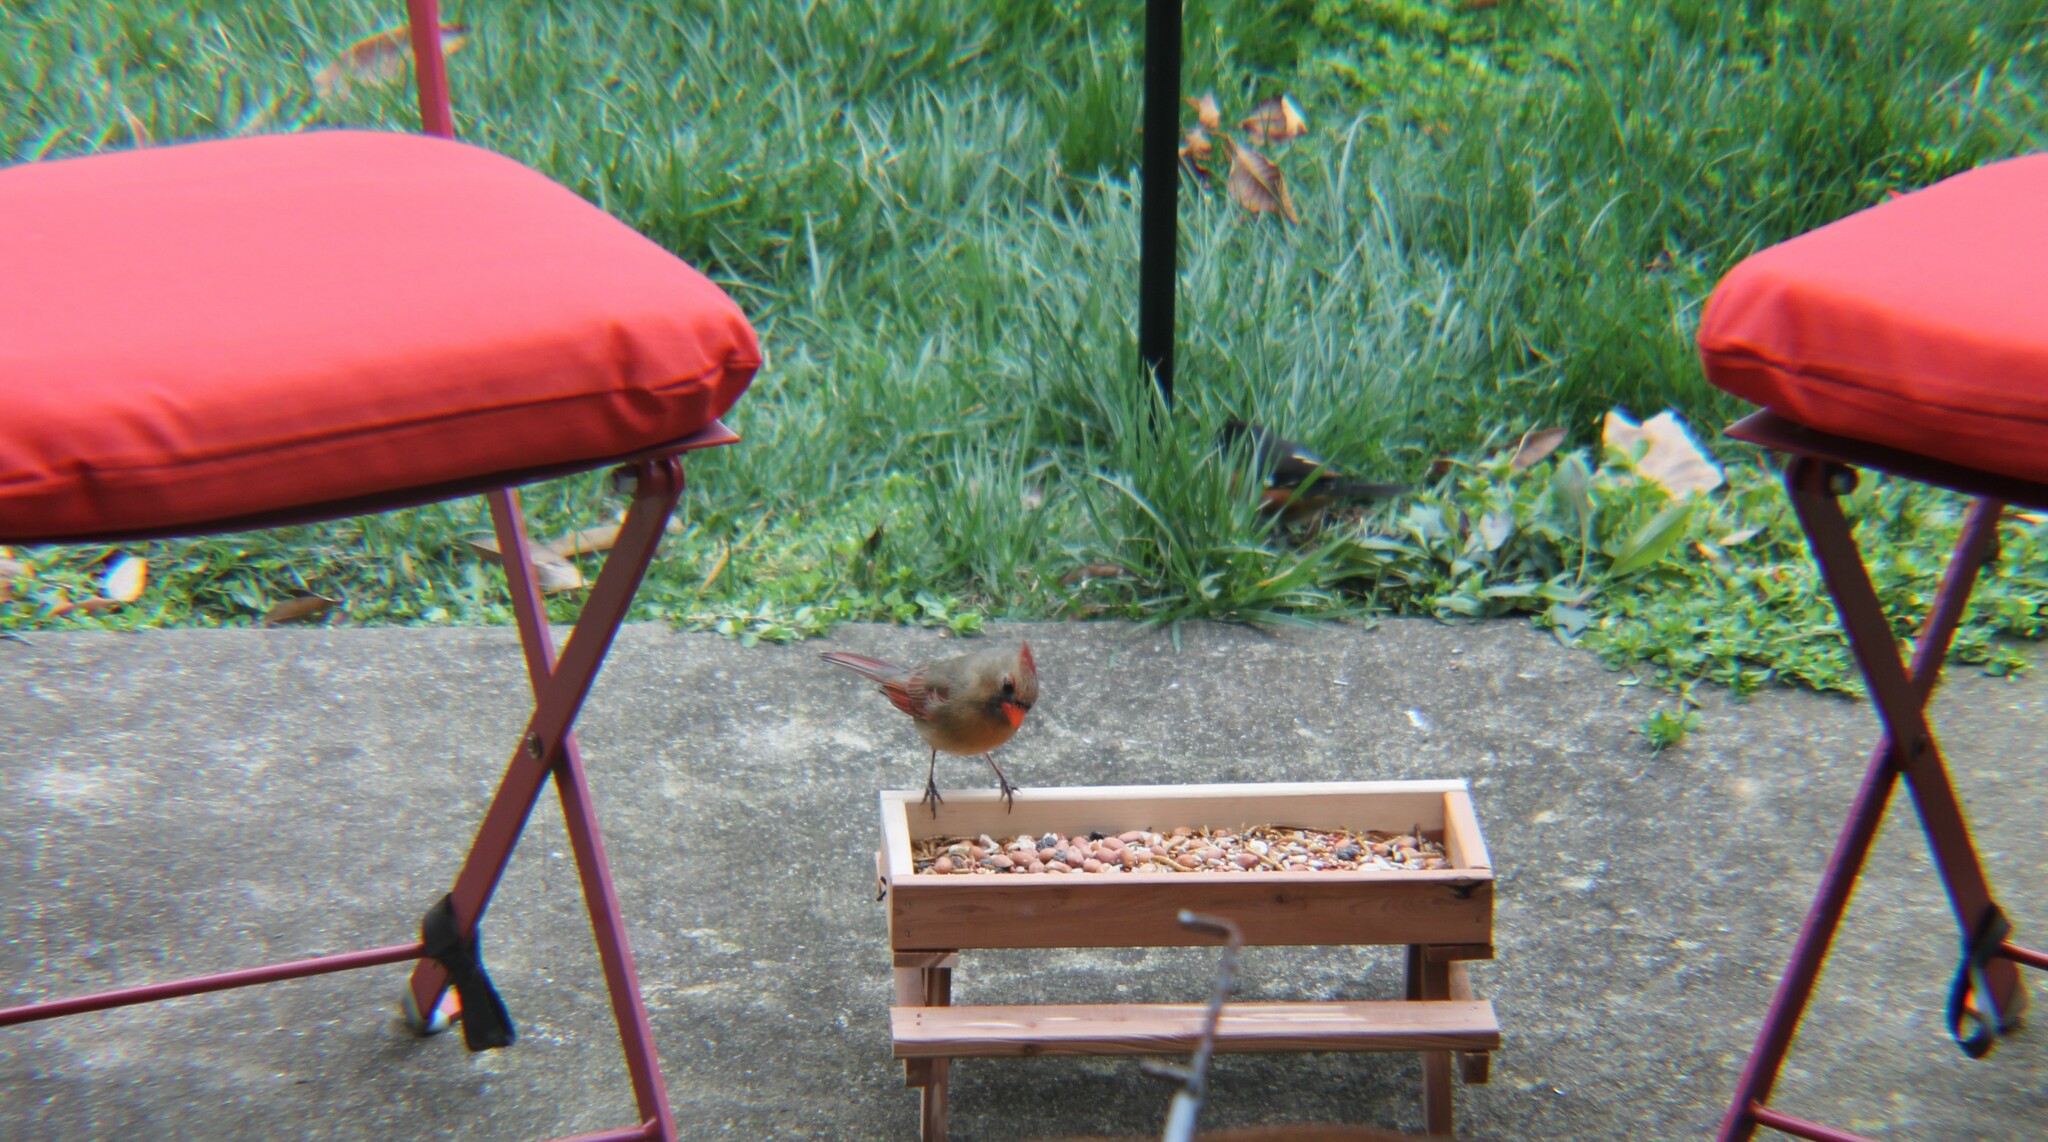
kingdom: Animalia
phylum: Chordata
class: Aves
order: Passeriformes
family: Cardinalidae
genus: Cardinalis
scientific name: Cardinalis cardinalis
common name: Northern cardinal
